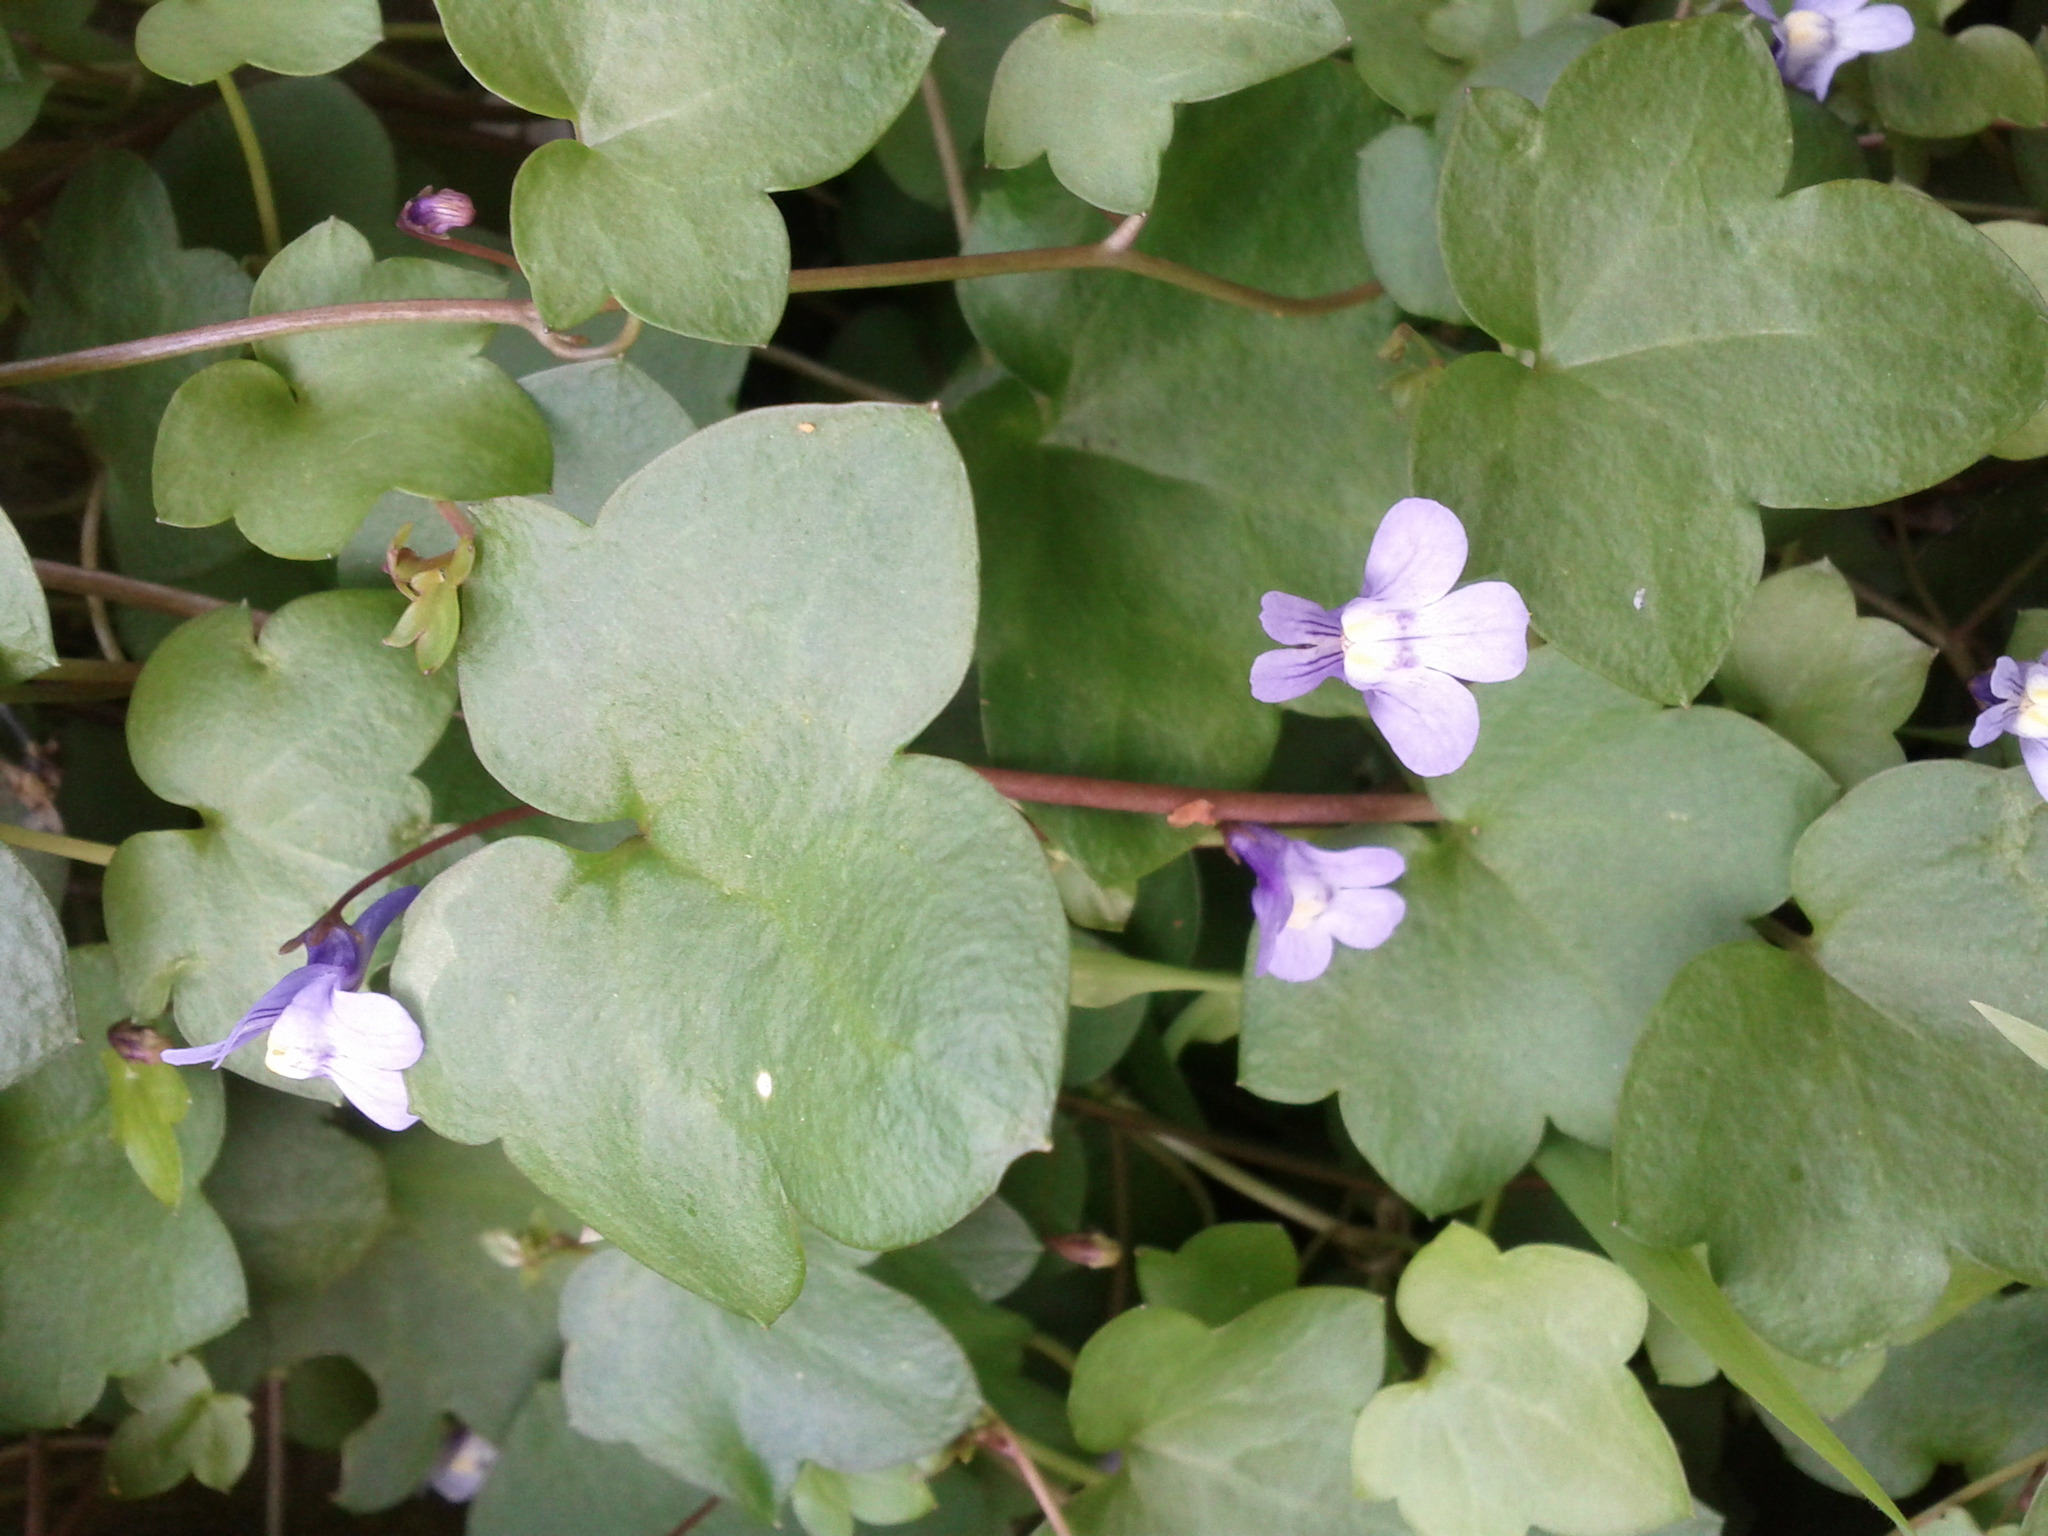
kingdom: Plantae
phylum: Tracheophyta
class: Magnoliopsida
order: Lamiales
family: Plantaginaceae
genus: Cymbalaria
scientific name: Cymbalaria muralis
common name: Ivy-leaved toadflax
